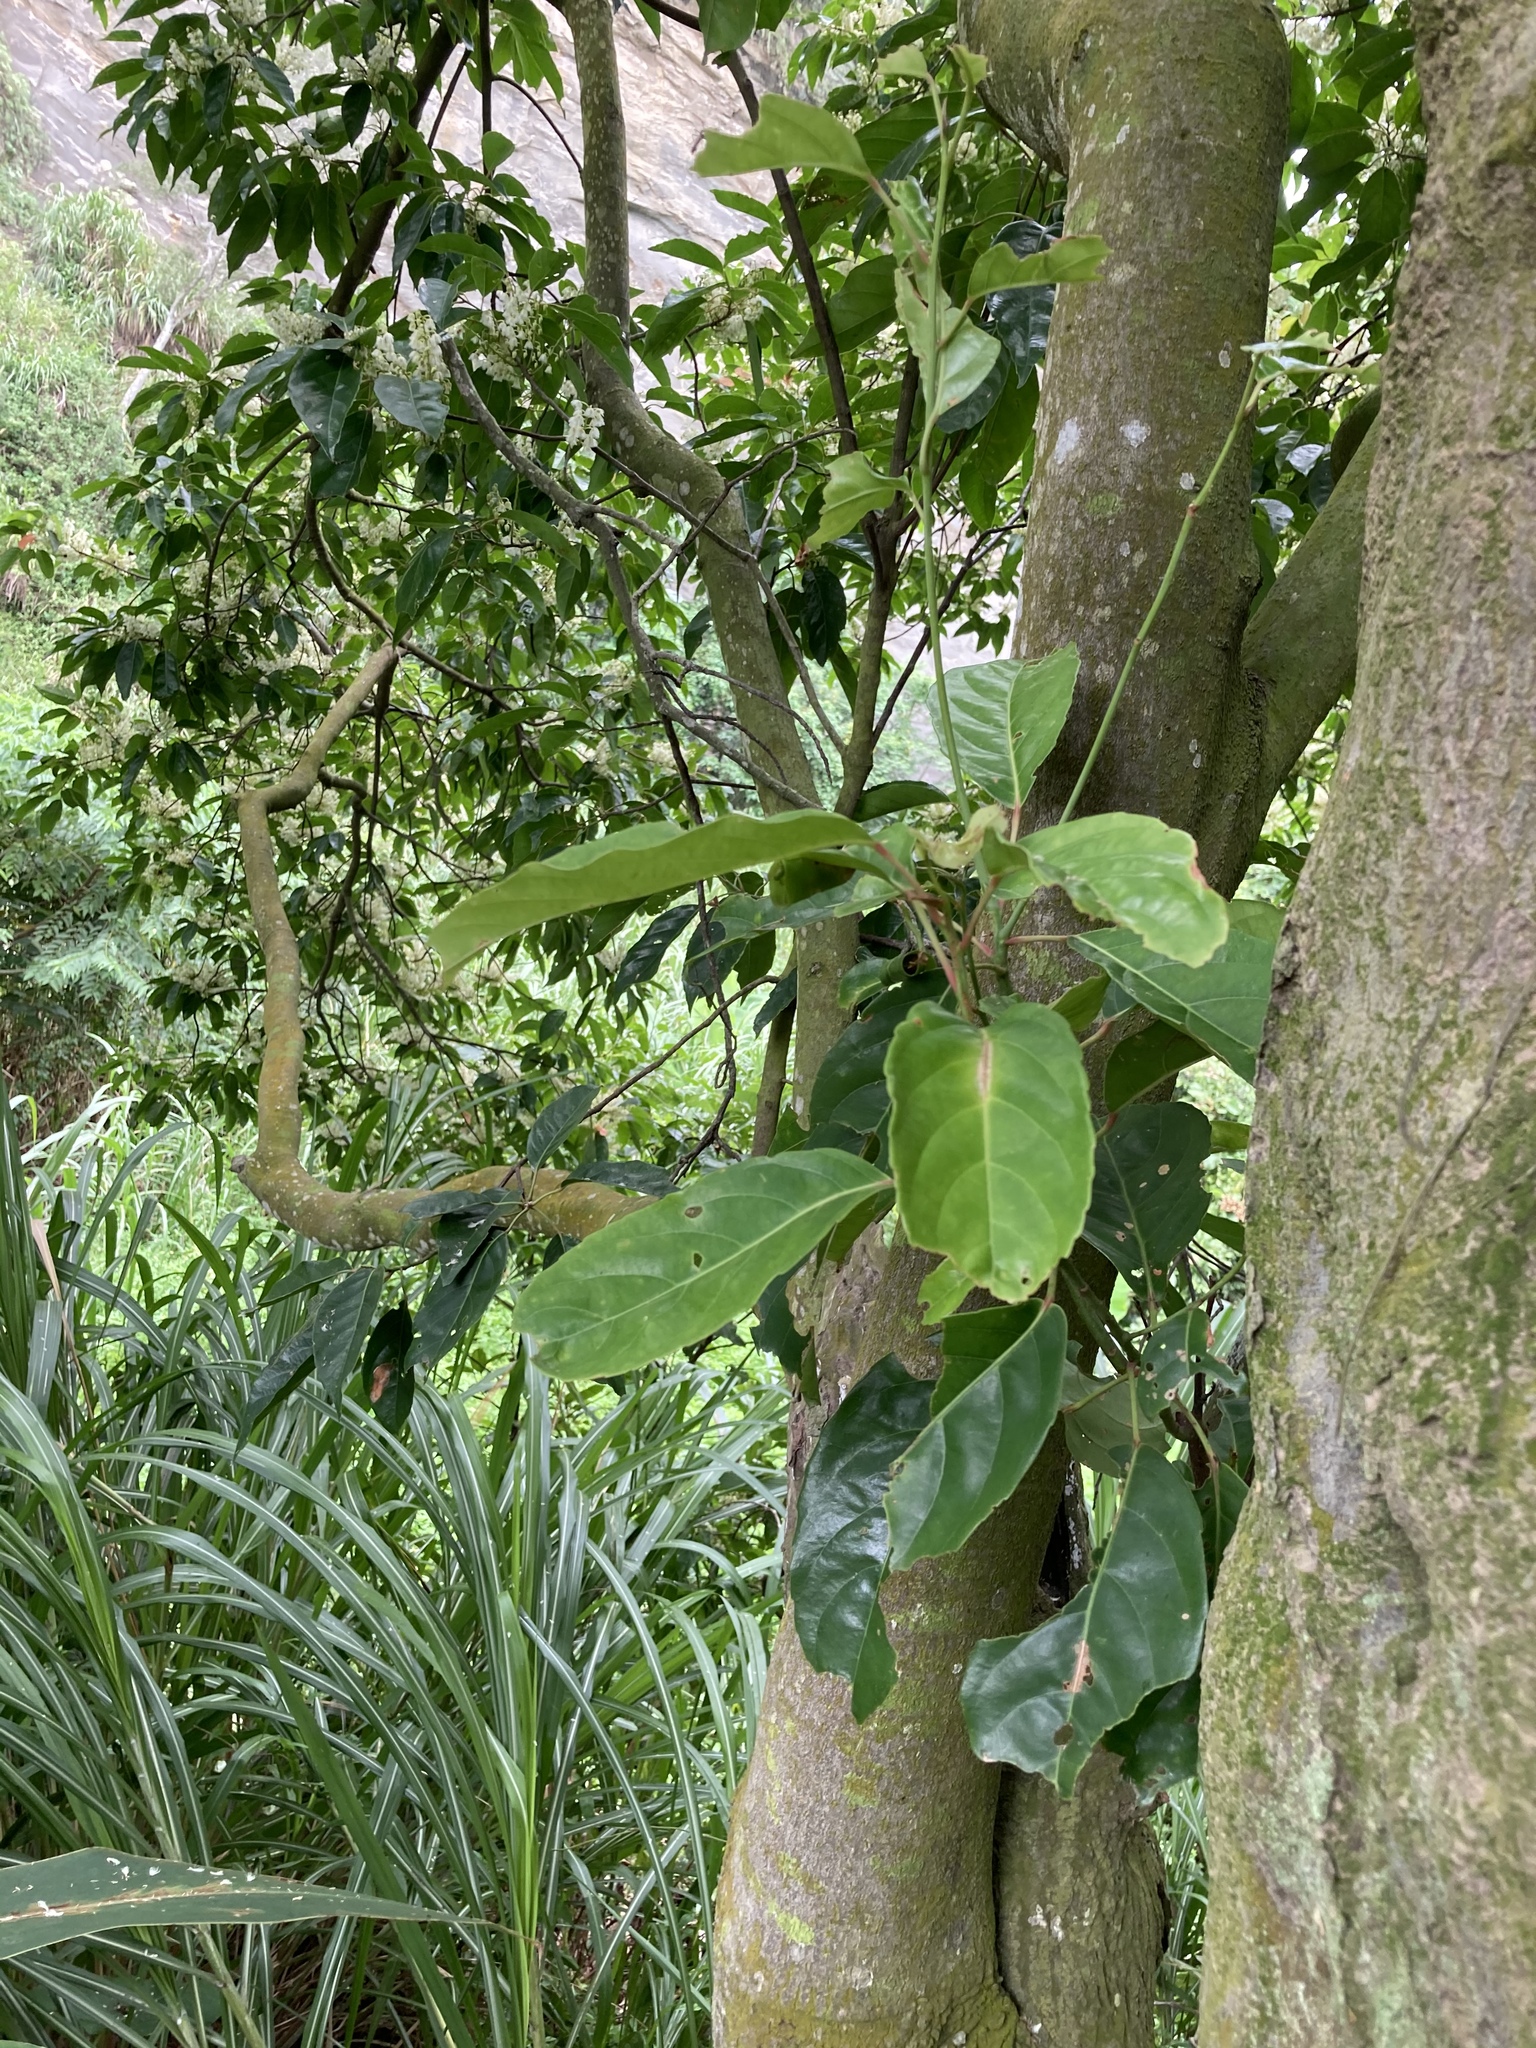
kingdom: Plantae
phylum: Tracheophyta
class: Magnoliopsida
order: Oxalidales
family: Elaeocarpaceae
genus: Elaeocarpus
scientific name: Elaeocarpus serratus
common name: Ceylon-olive
